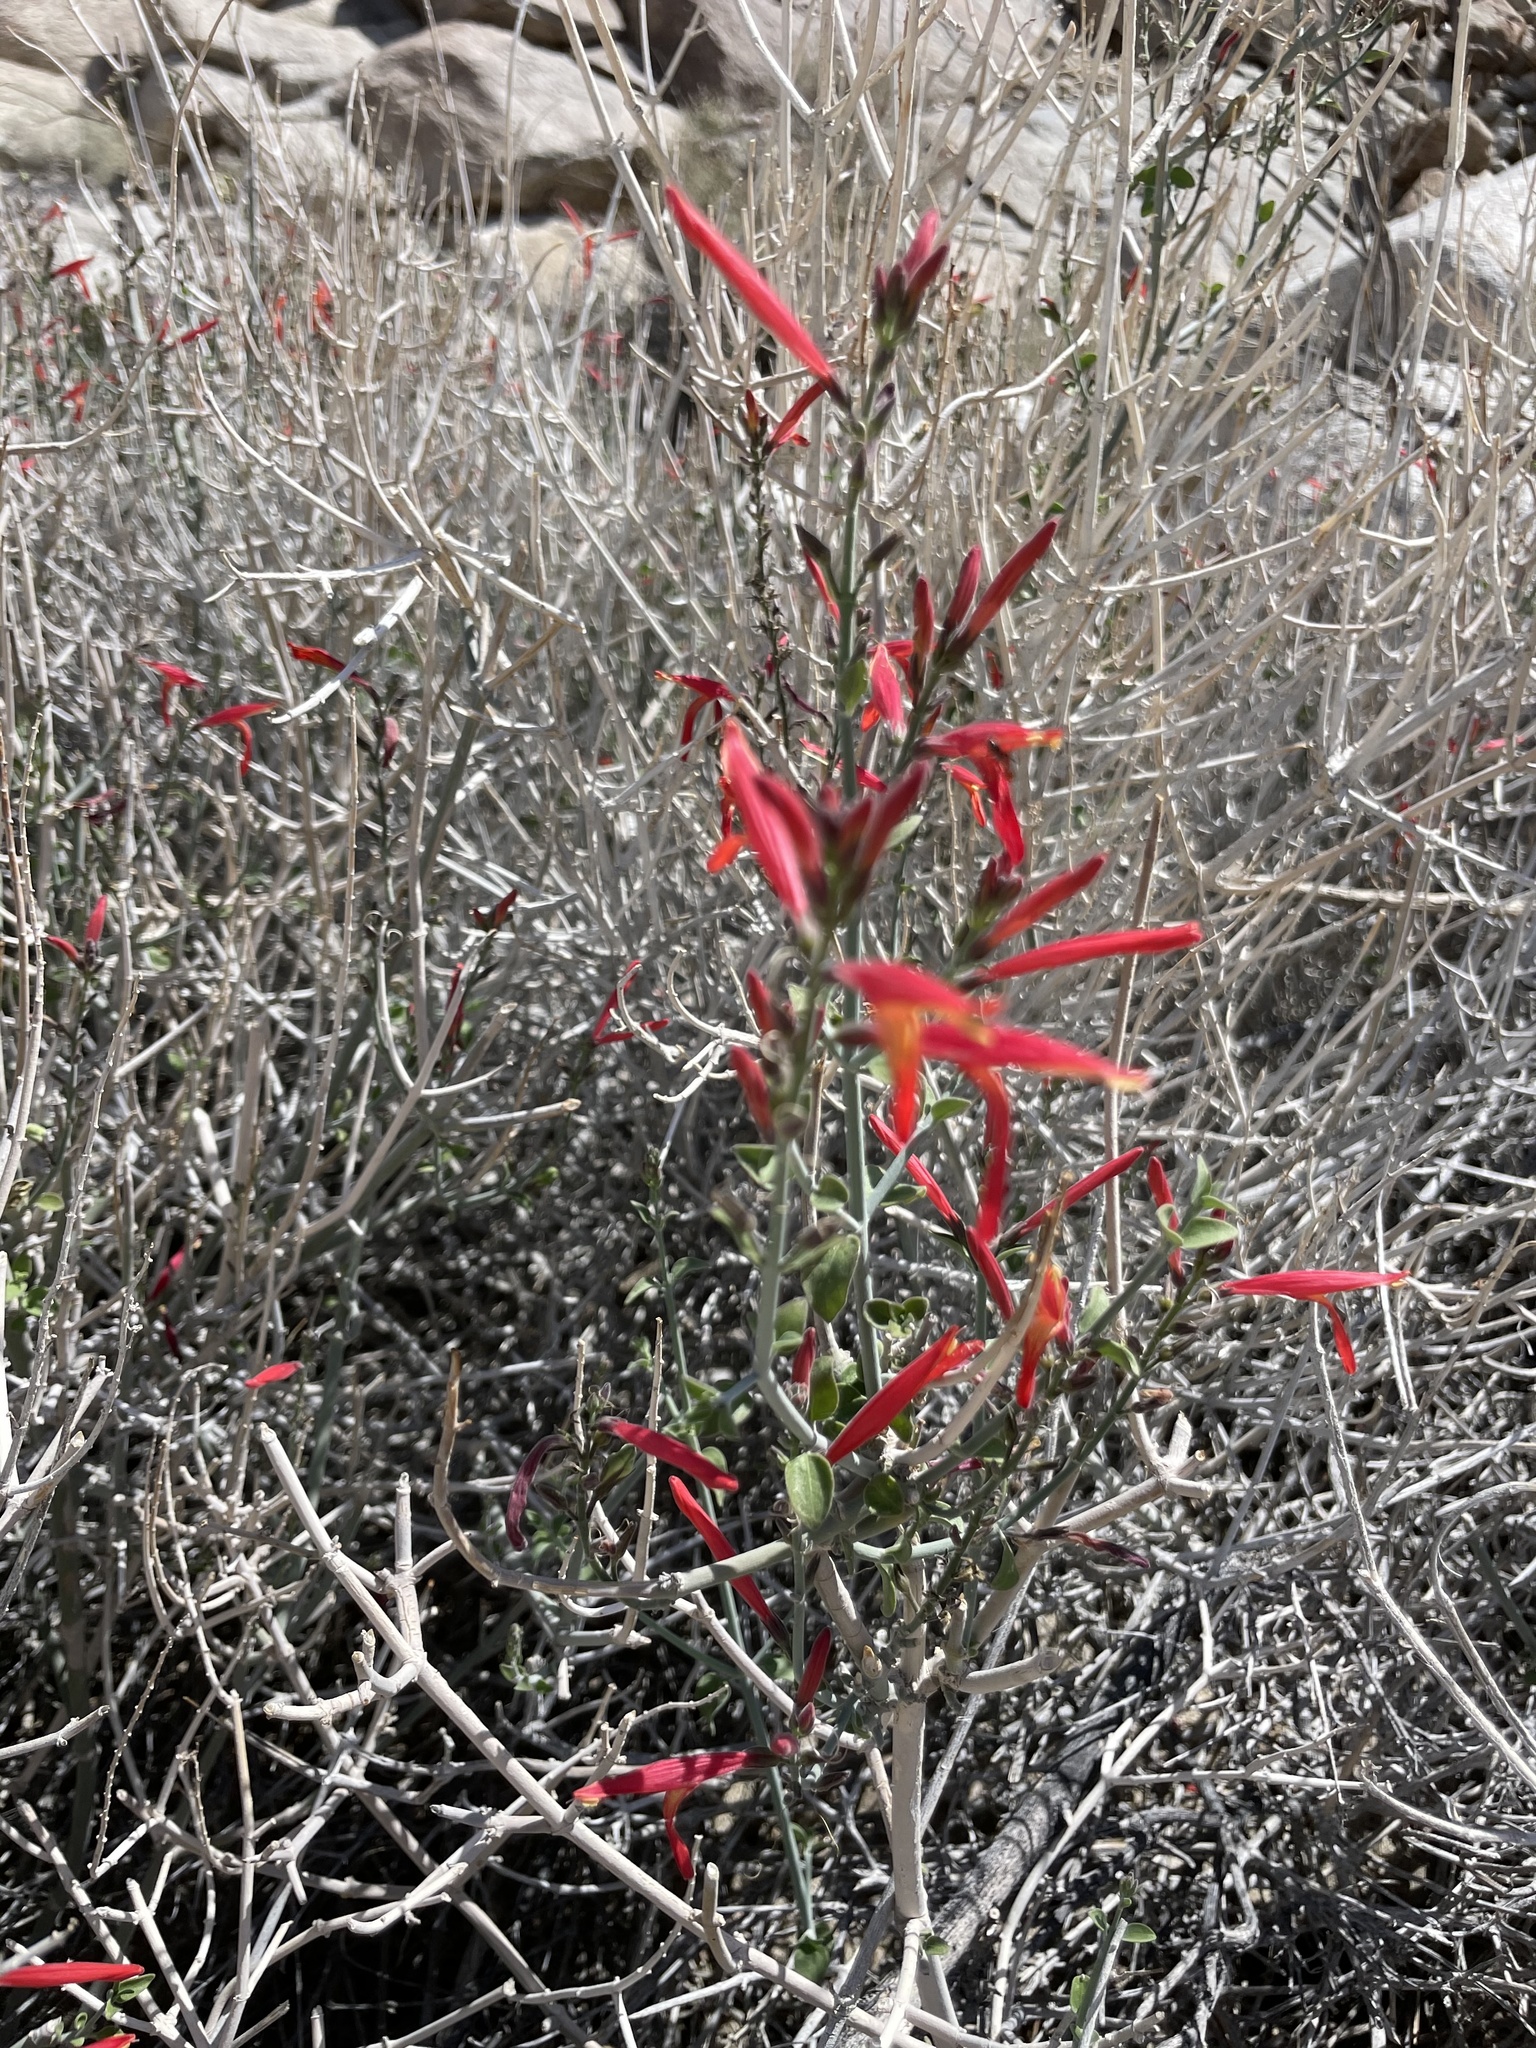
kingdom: Plantae
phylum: Tracheophyta
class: Magnoliopsida
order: Lamiales
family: Acanthaceae
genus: Justicia
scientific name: Justicia californica
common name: Chuparosa-honeysuckle
